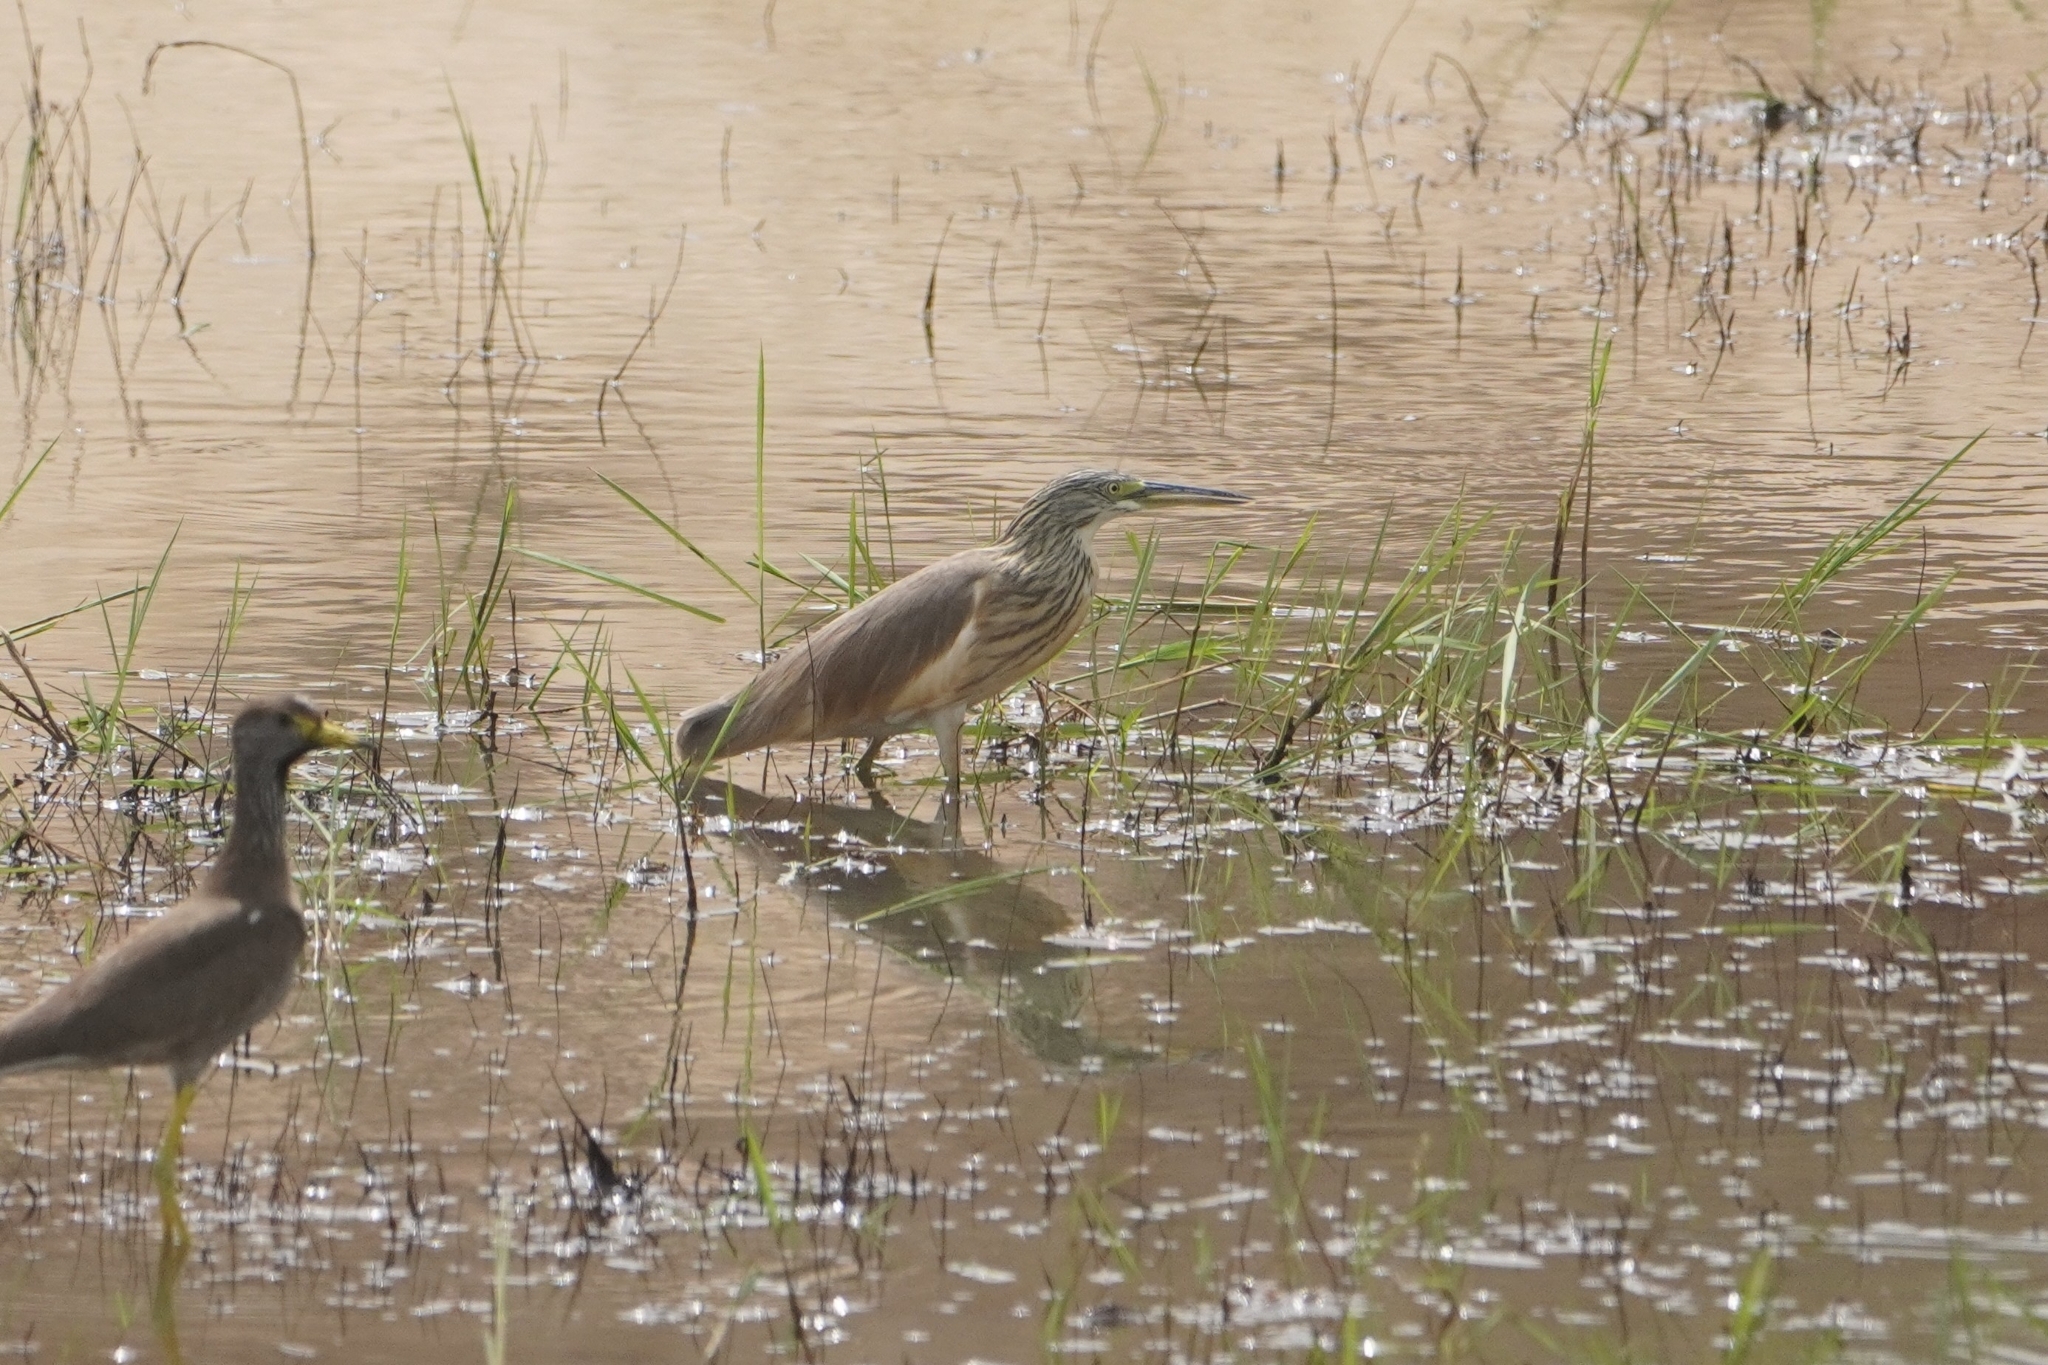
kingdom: Animalia
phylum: Chordata
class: Aves
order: Pelecaniformes
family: Ardeidae
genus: Ardeola
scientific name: Ardeola ralloides
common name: Squacco heron
